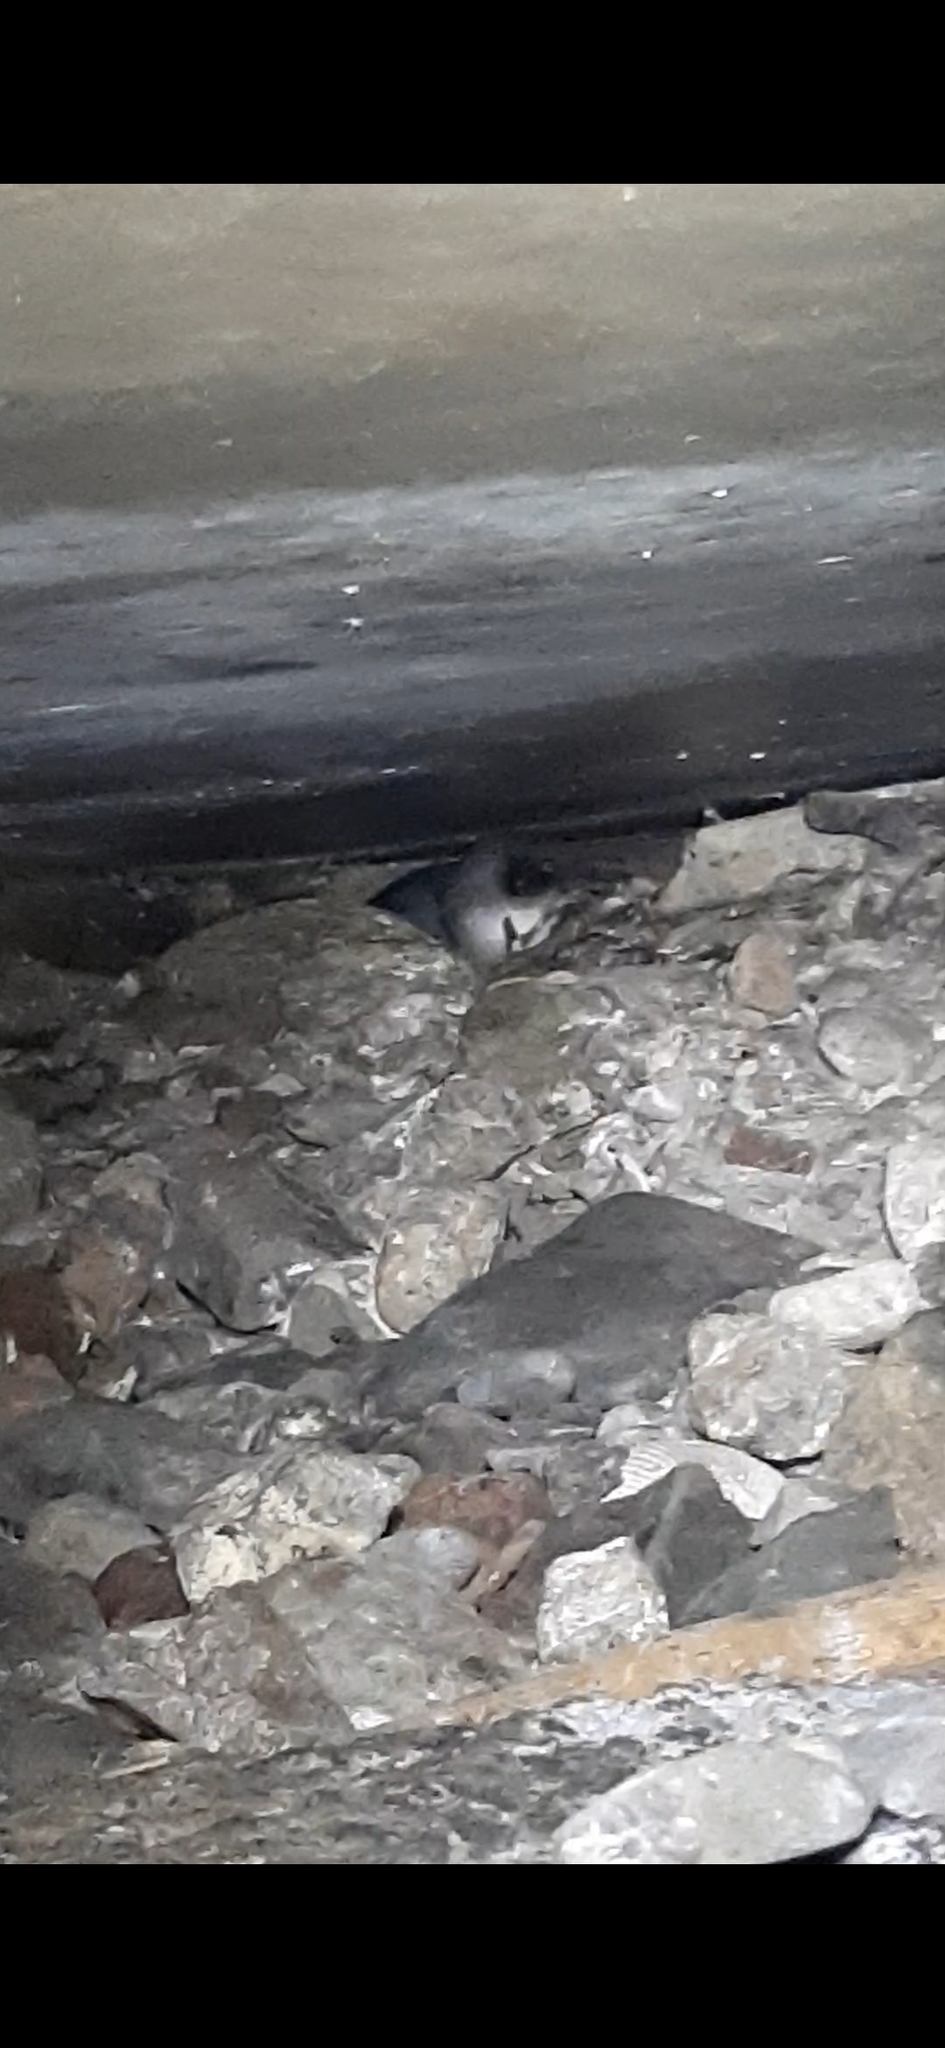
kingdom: Animalia
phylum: Chordata
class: Aves
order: Sphenisciformes
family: Spheniscidae
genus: Eudyptula
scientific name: Eudyptula minor
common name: Little penguin
